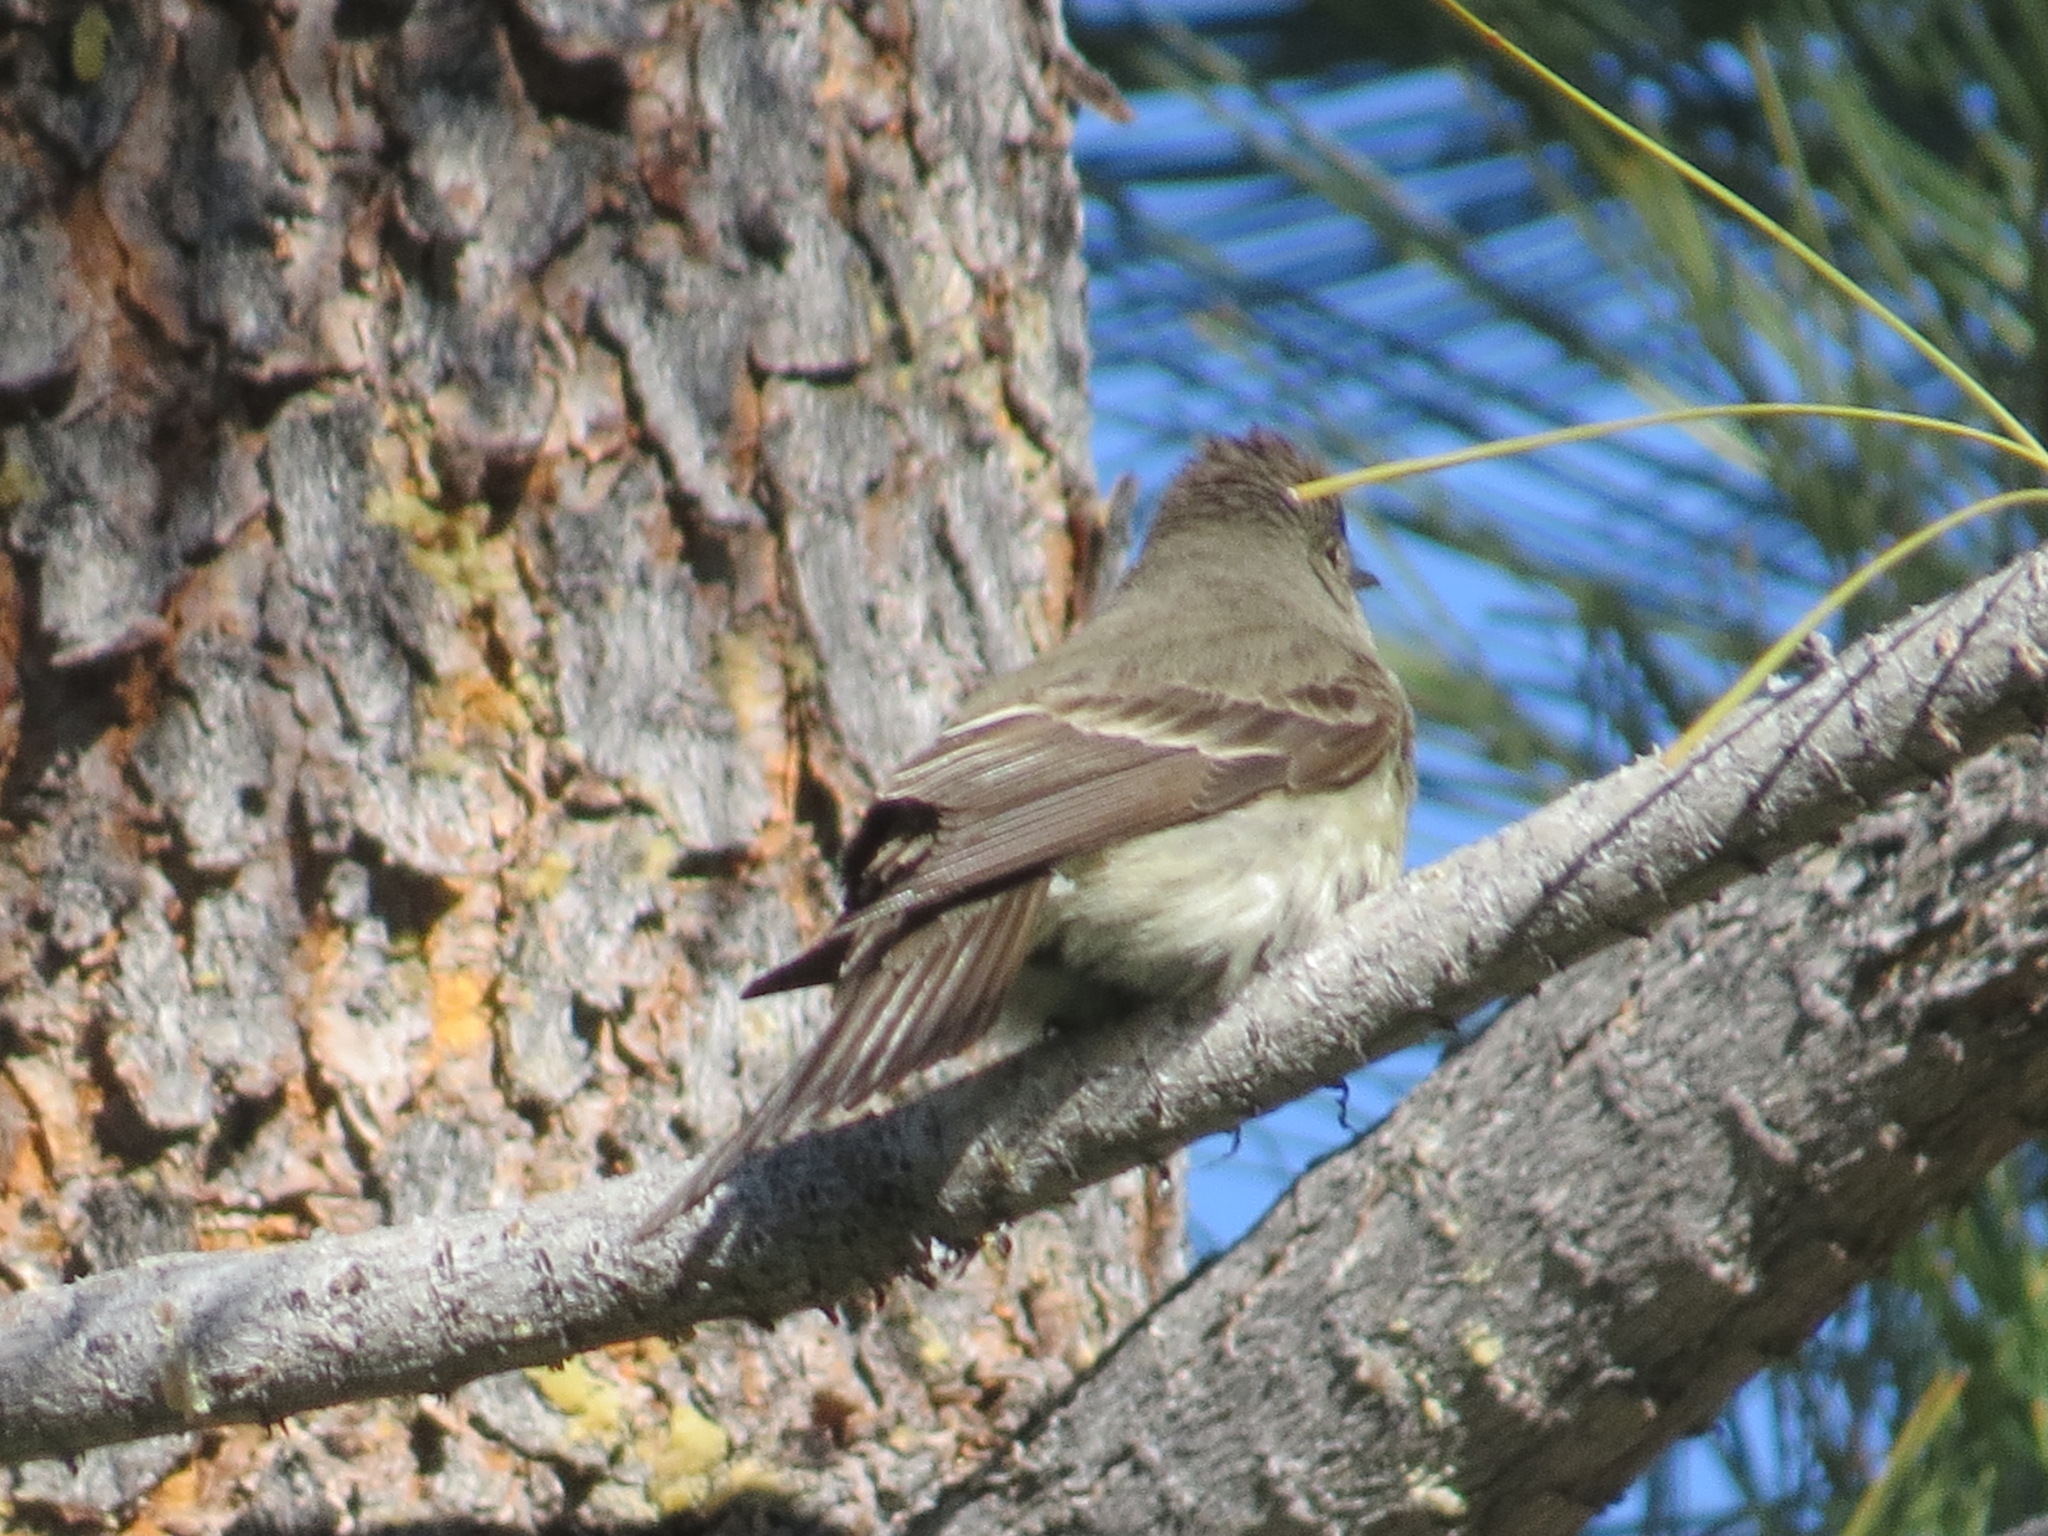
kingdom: Animalia
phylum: Chordata
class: Aves
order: Passeriformes
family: Tyrannidae
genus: Contopus
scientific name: Contopus sordidulus
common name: Western wood-pewee
